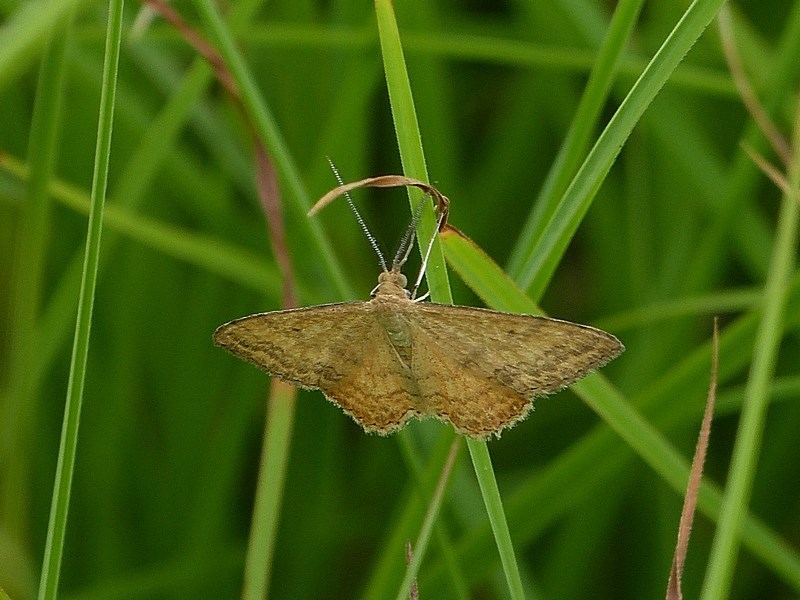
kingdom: Animalia
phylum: Arthropoda
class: Insecta
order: Lepidoptera
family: Geometridae
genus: Scopula
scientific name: Scopula rubraria
